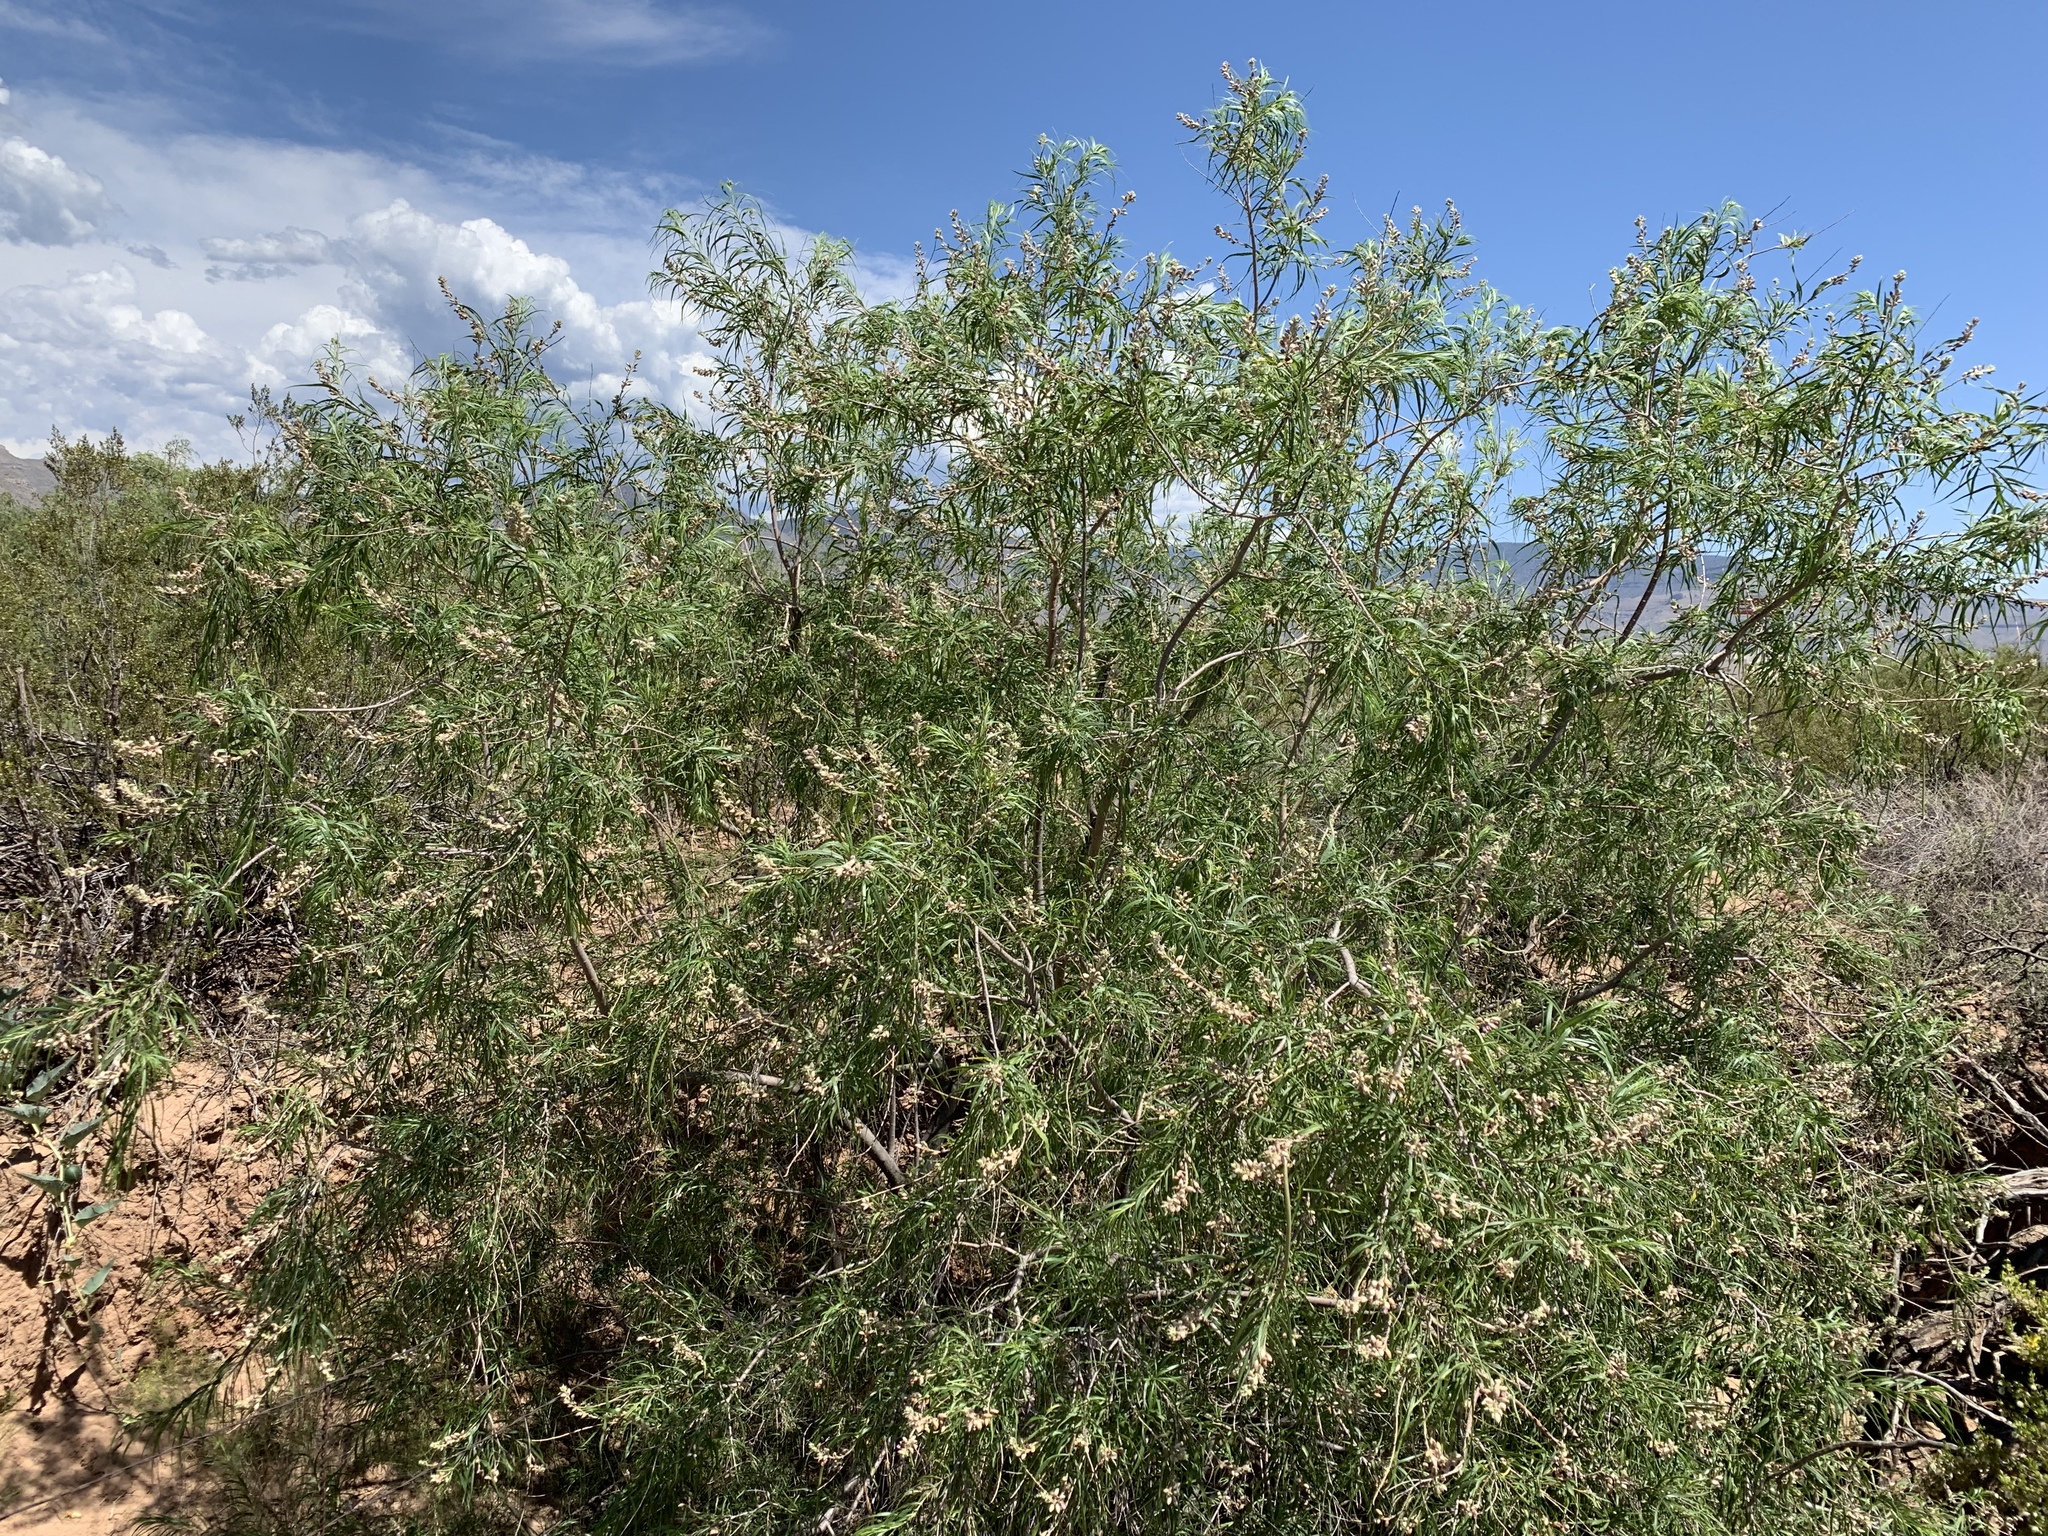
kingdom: Plantae
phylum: Tracheophyta
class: Magnoliopsida
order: Lamiales
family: Bignoniaceae
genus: Chilopsis
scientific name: Chilopsis linearis
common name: Desert-willow
